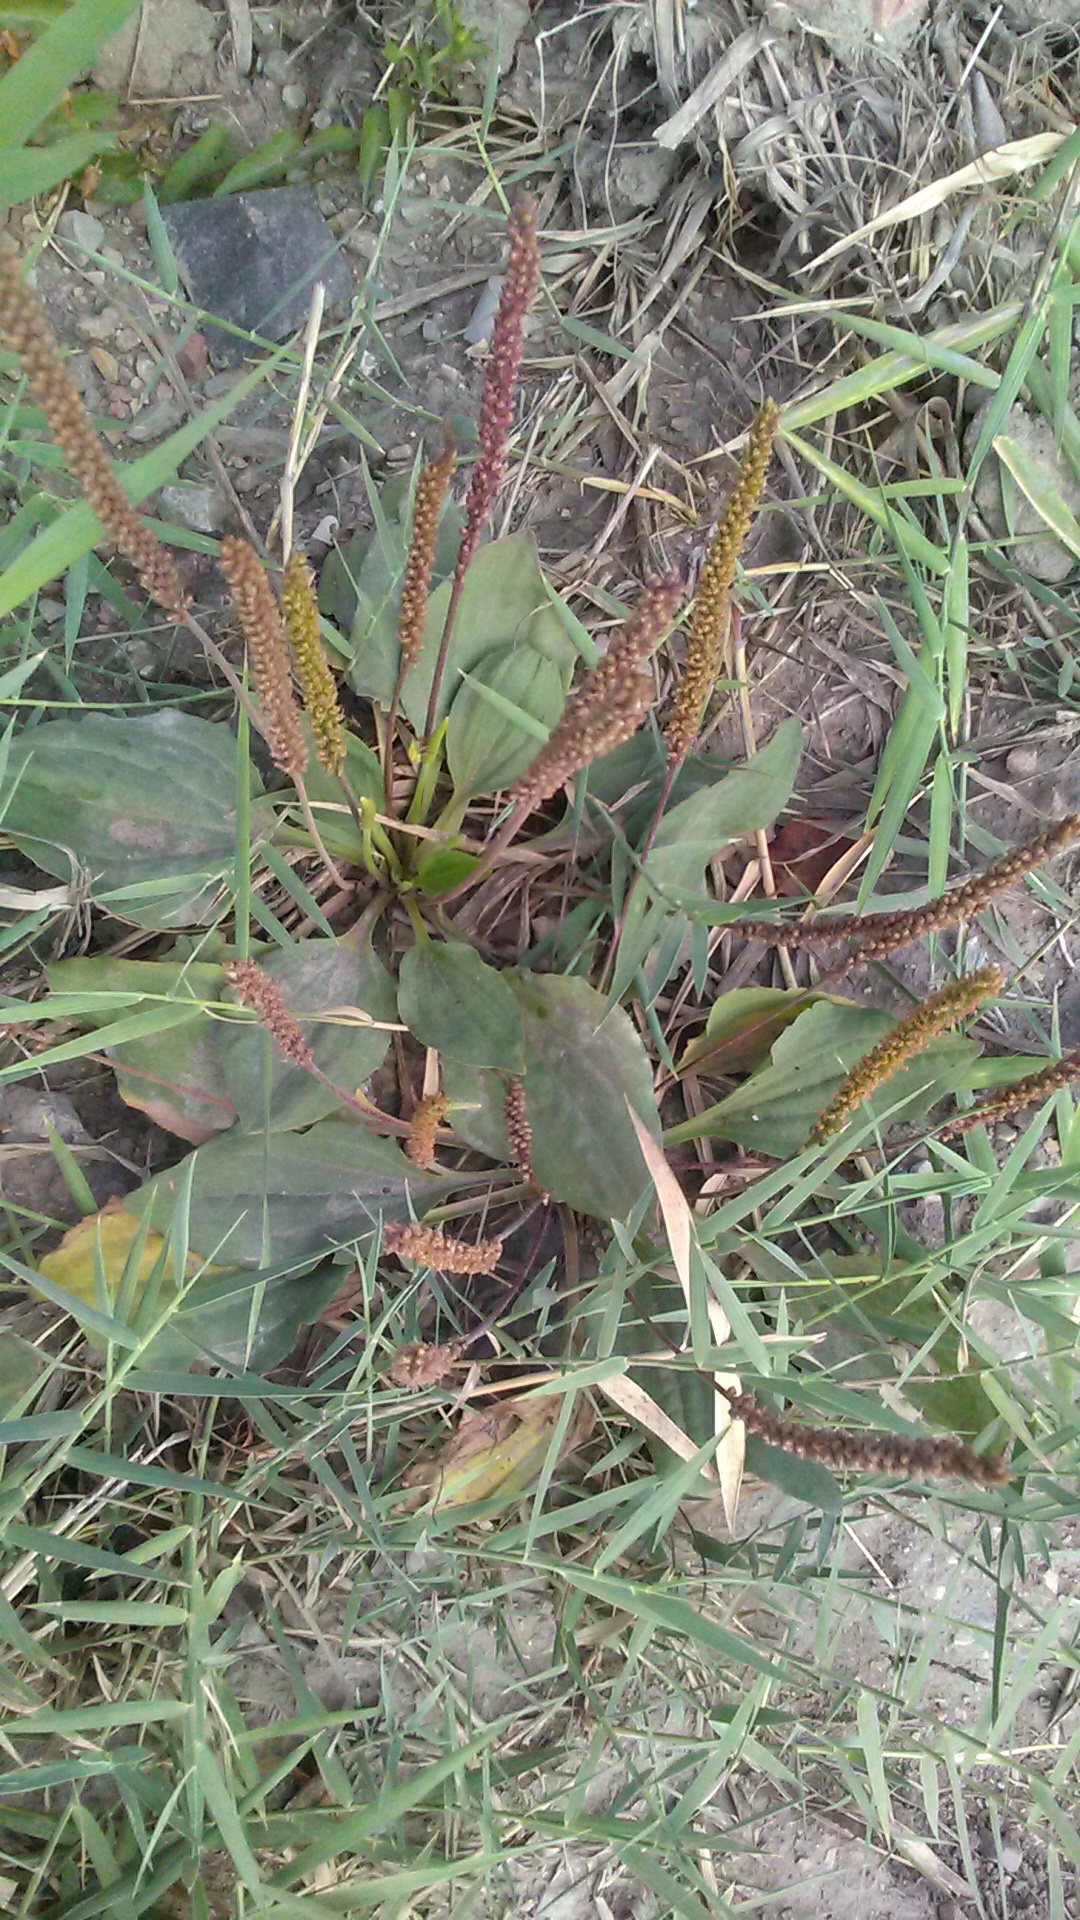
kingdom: Plantae
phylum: Tracheophyta
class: Magnoliopsida
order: Lamiales
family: Plantaginaceae
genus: Plantago
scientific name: Plantago major
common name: Common plantain
